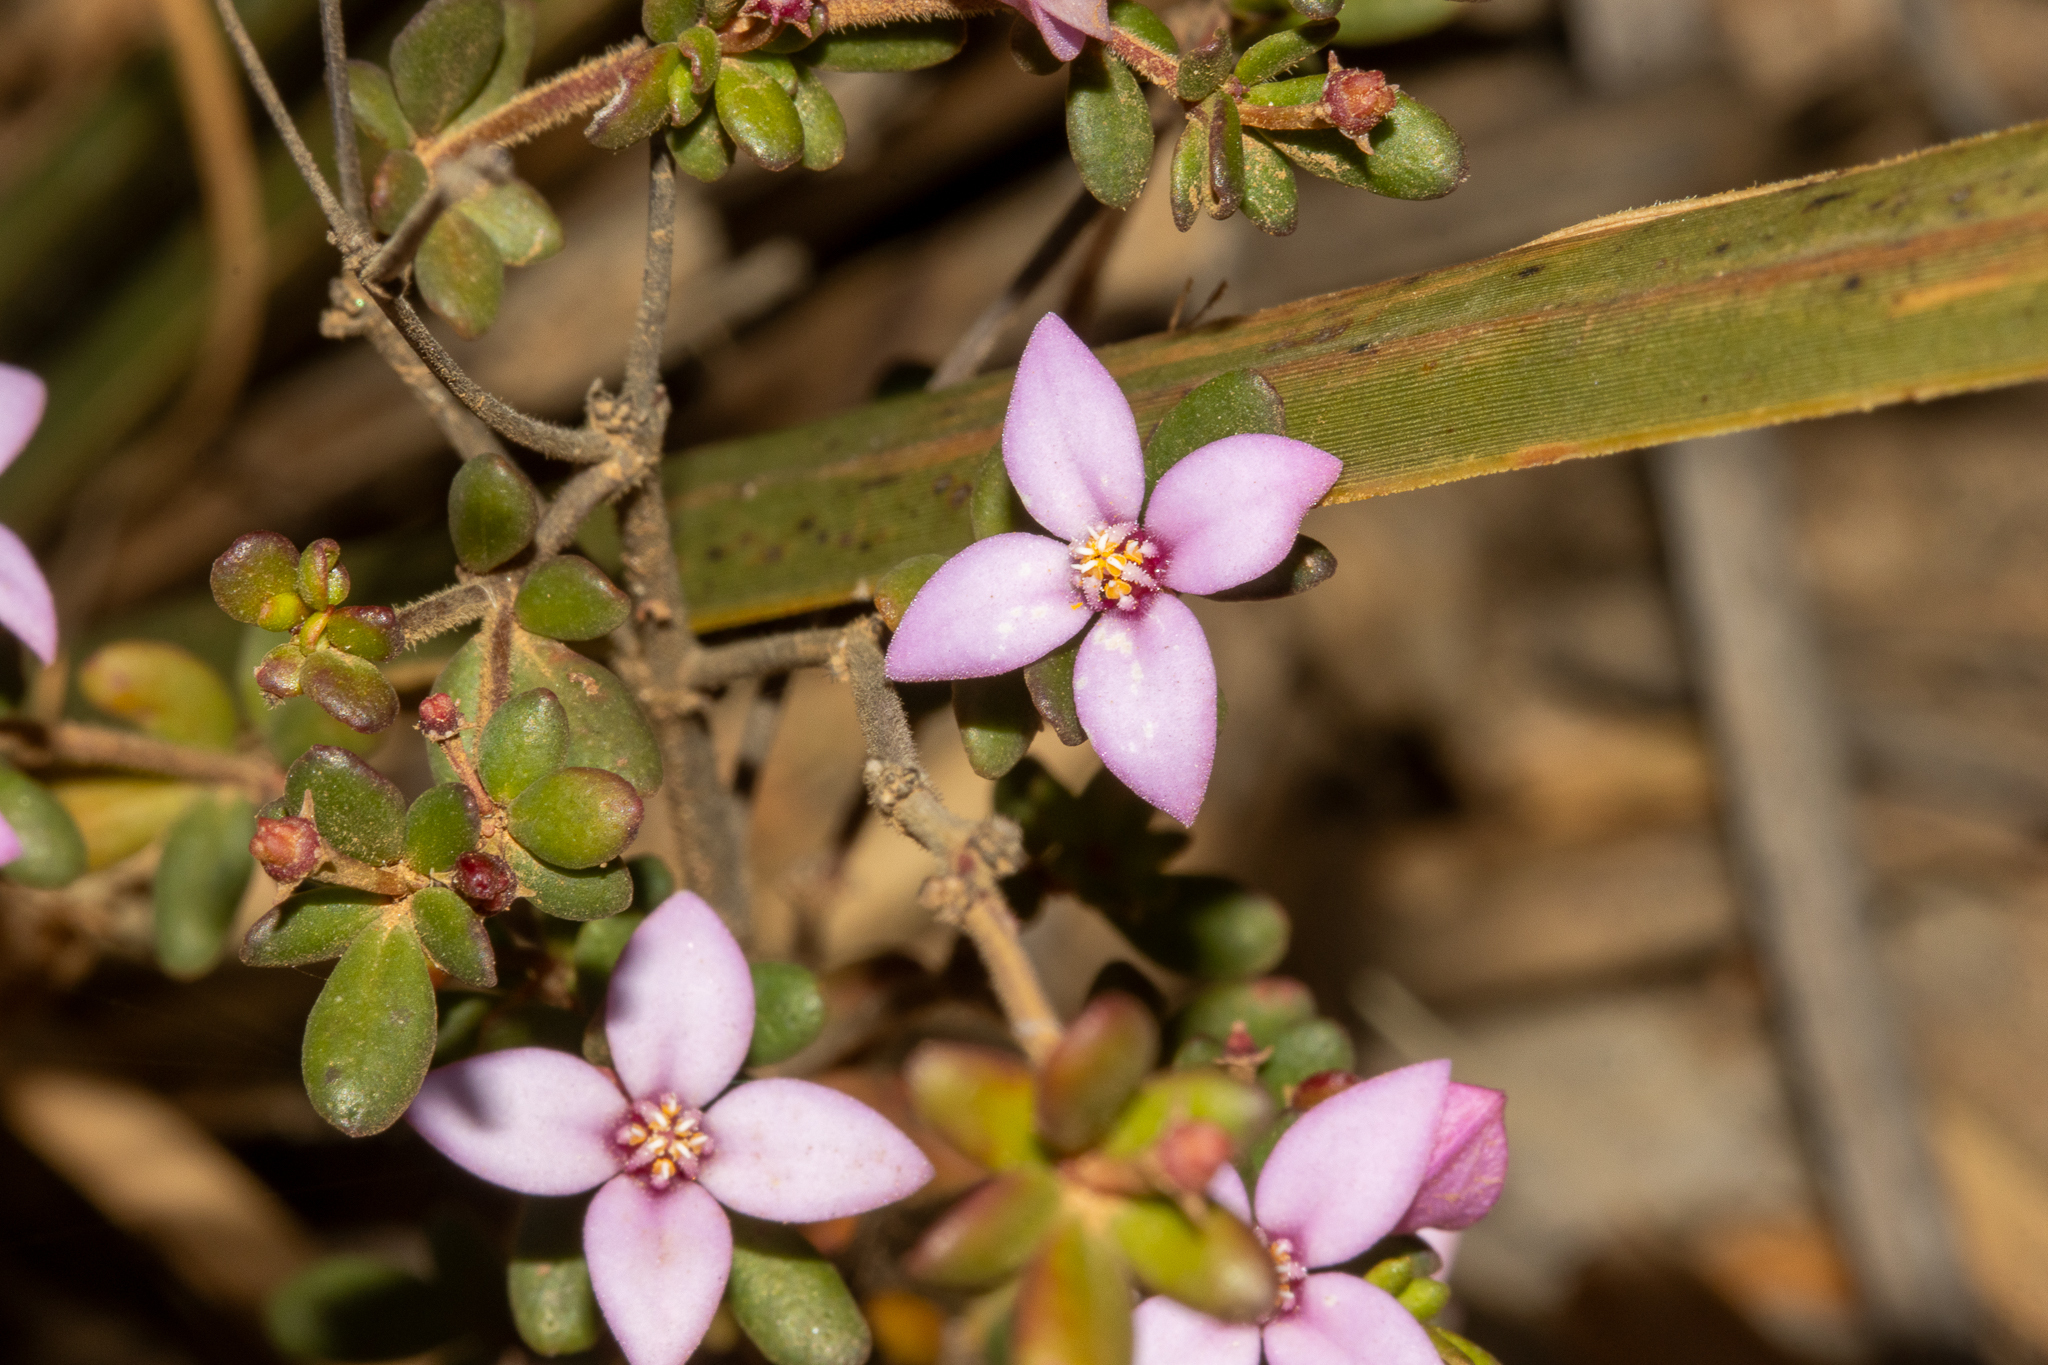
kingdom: Plantae
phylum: Tracheophyta
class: Magnoliopsida
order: Sapindales
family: Rutaceae
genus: Boronia
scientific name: Boronia edwardsii
